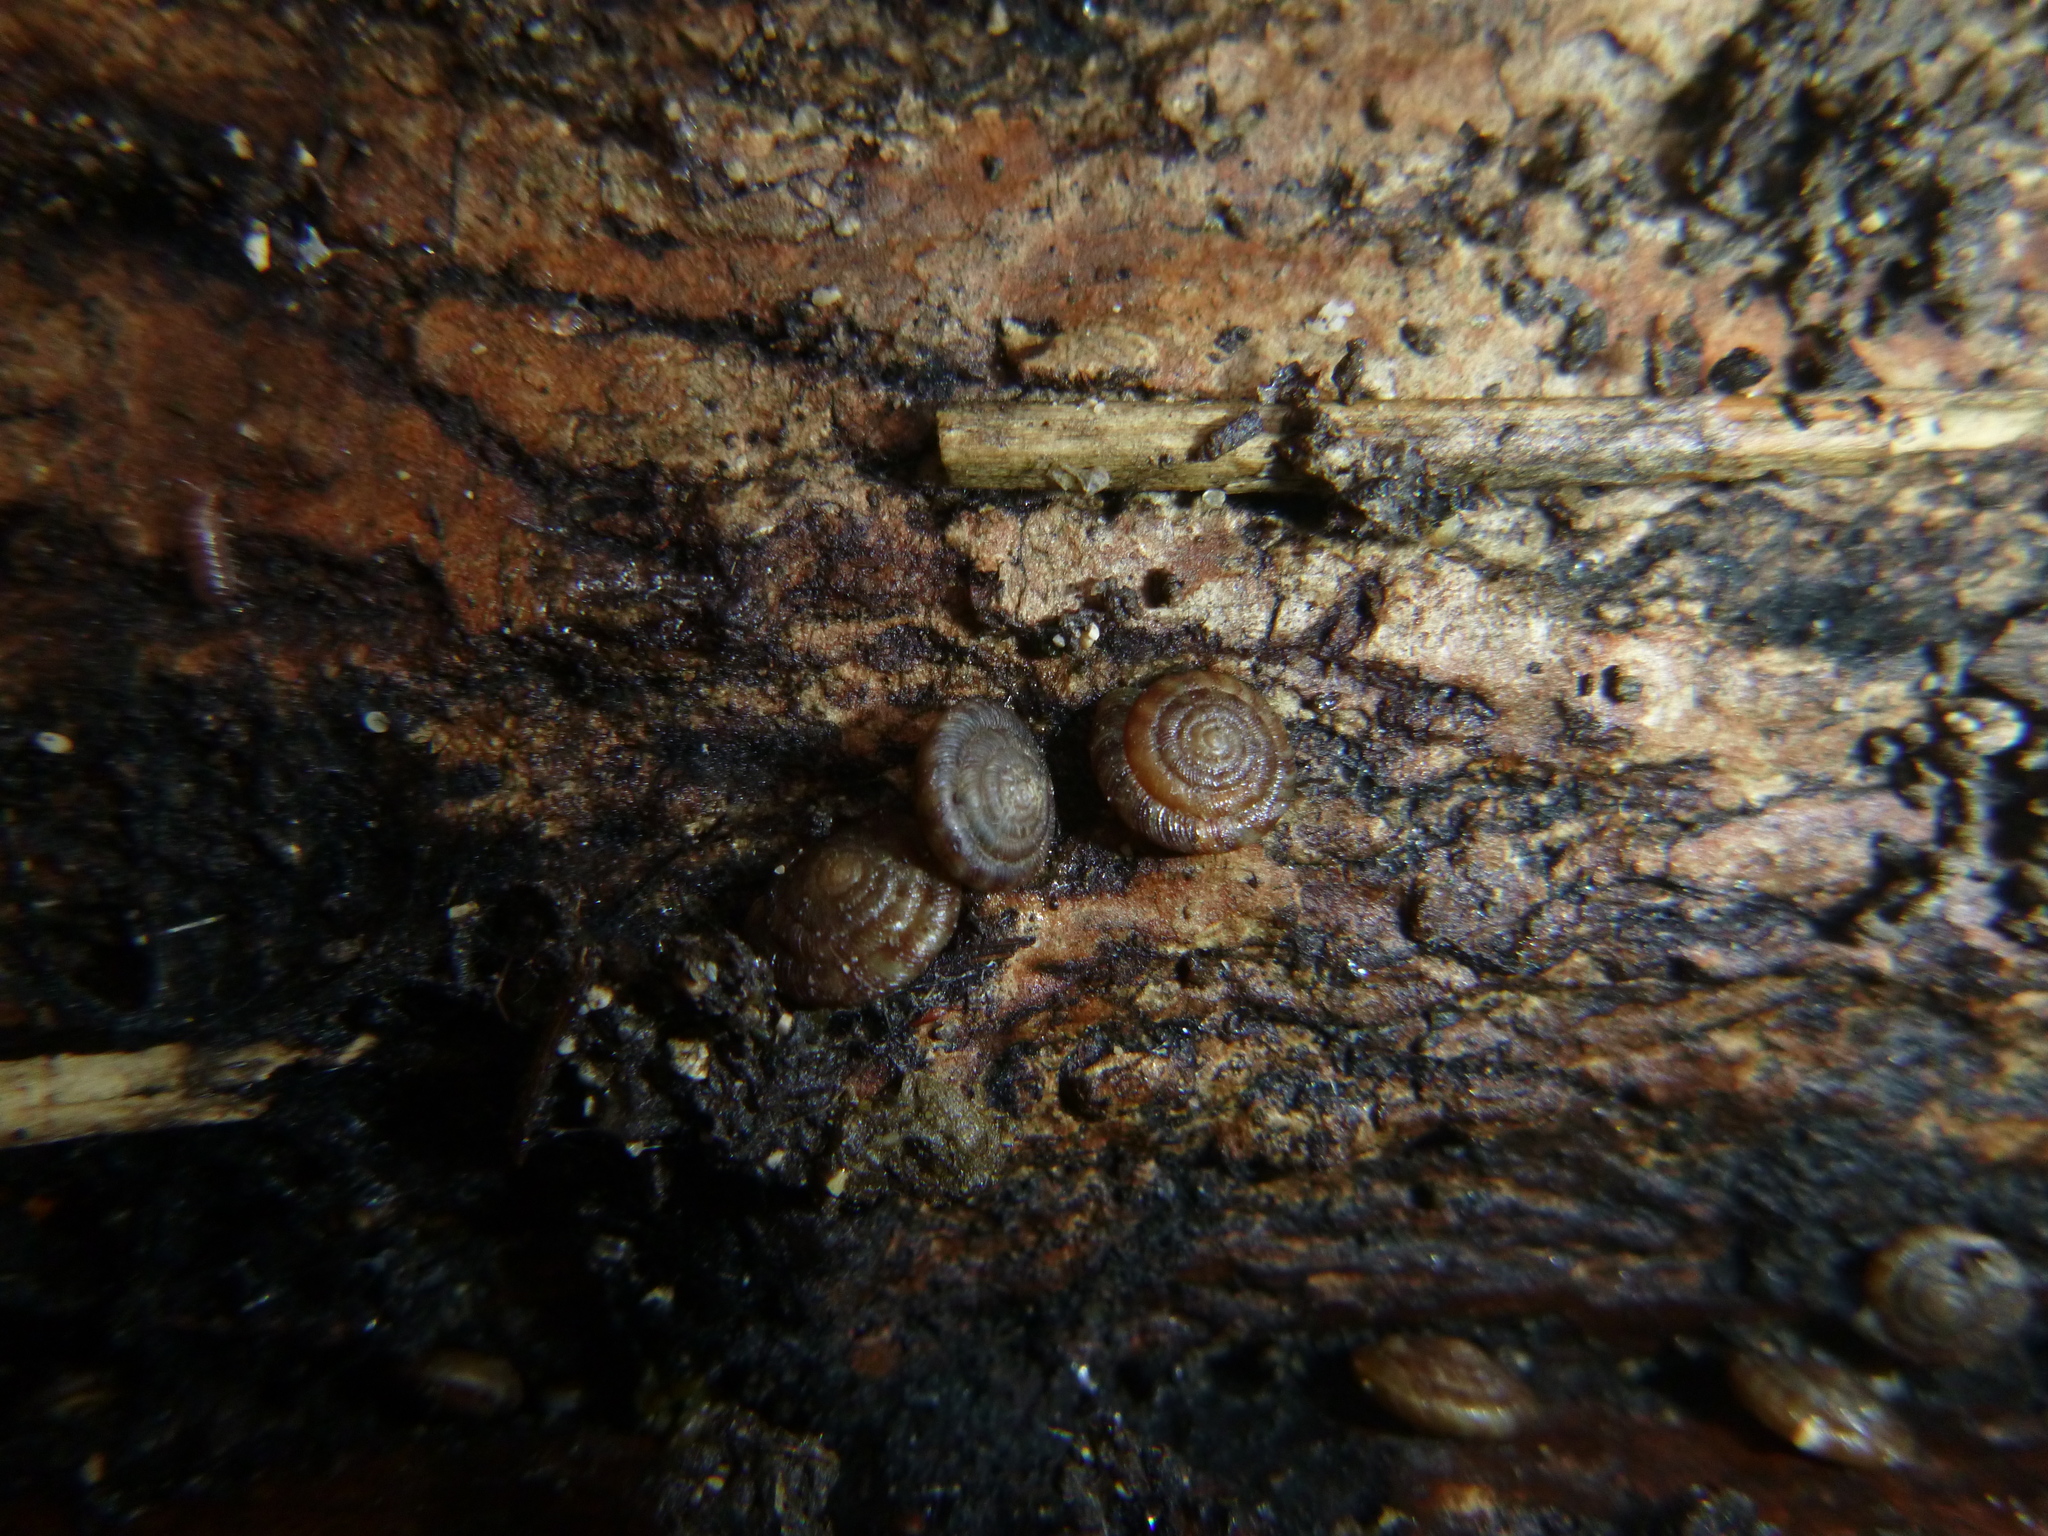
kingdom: Animalia
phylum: Mollusca
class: Gastropoda
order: Stylommatophora
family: Discidae
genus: Discus
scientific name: Discus rotundatus
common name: Rounded snail
